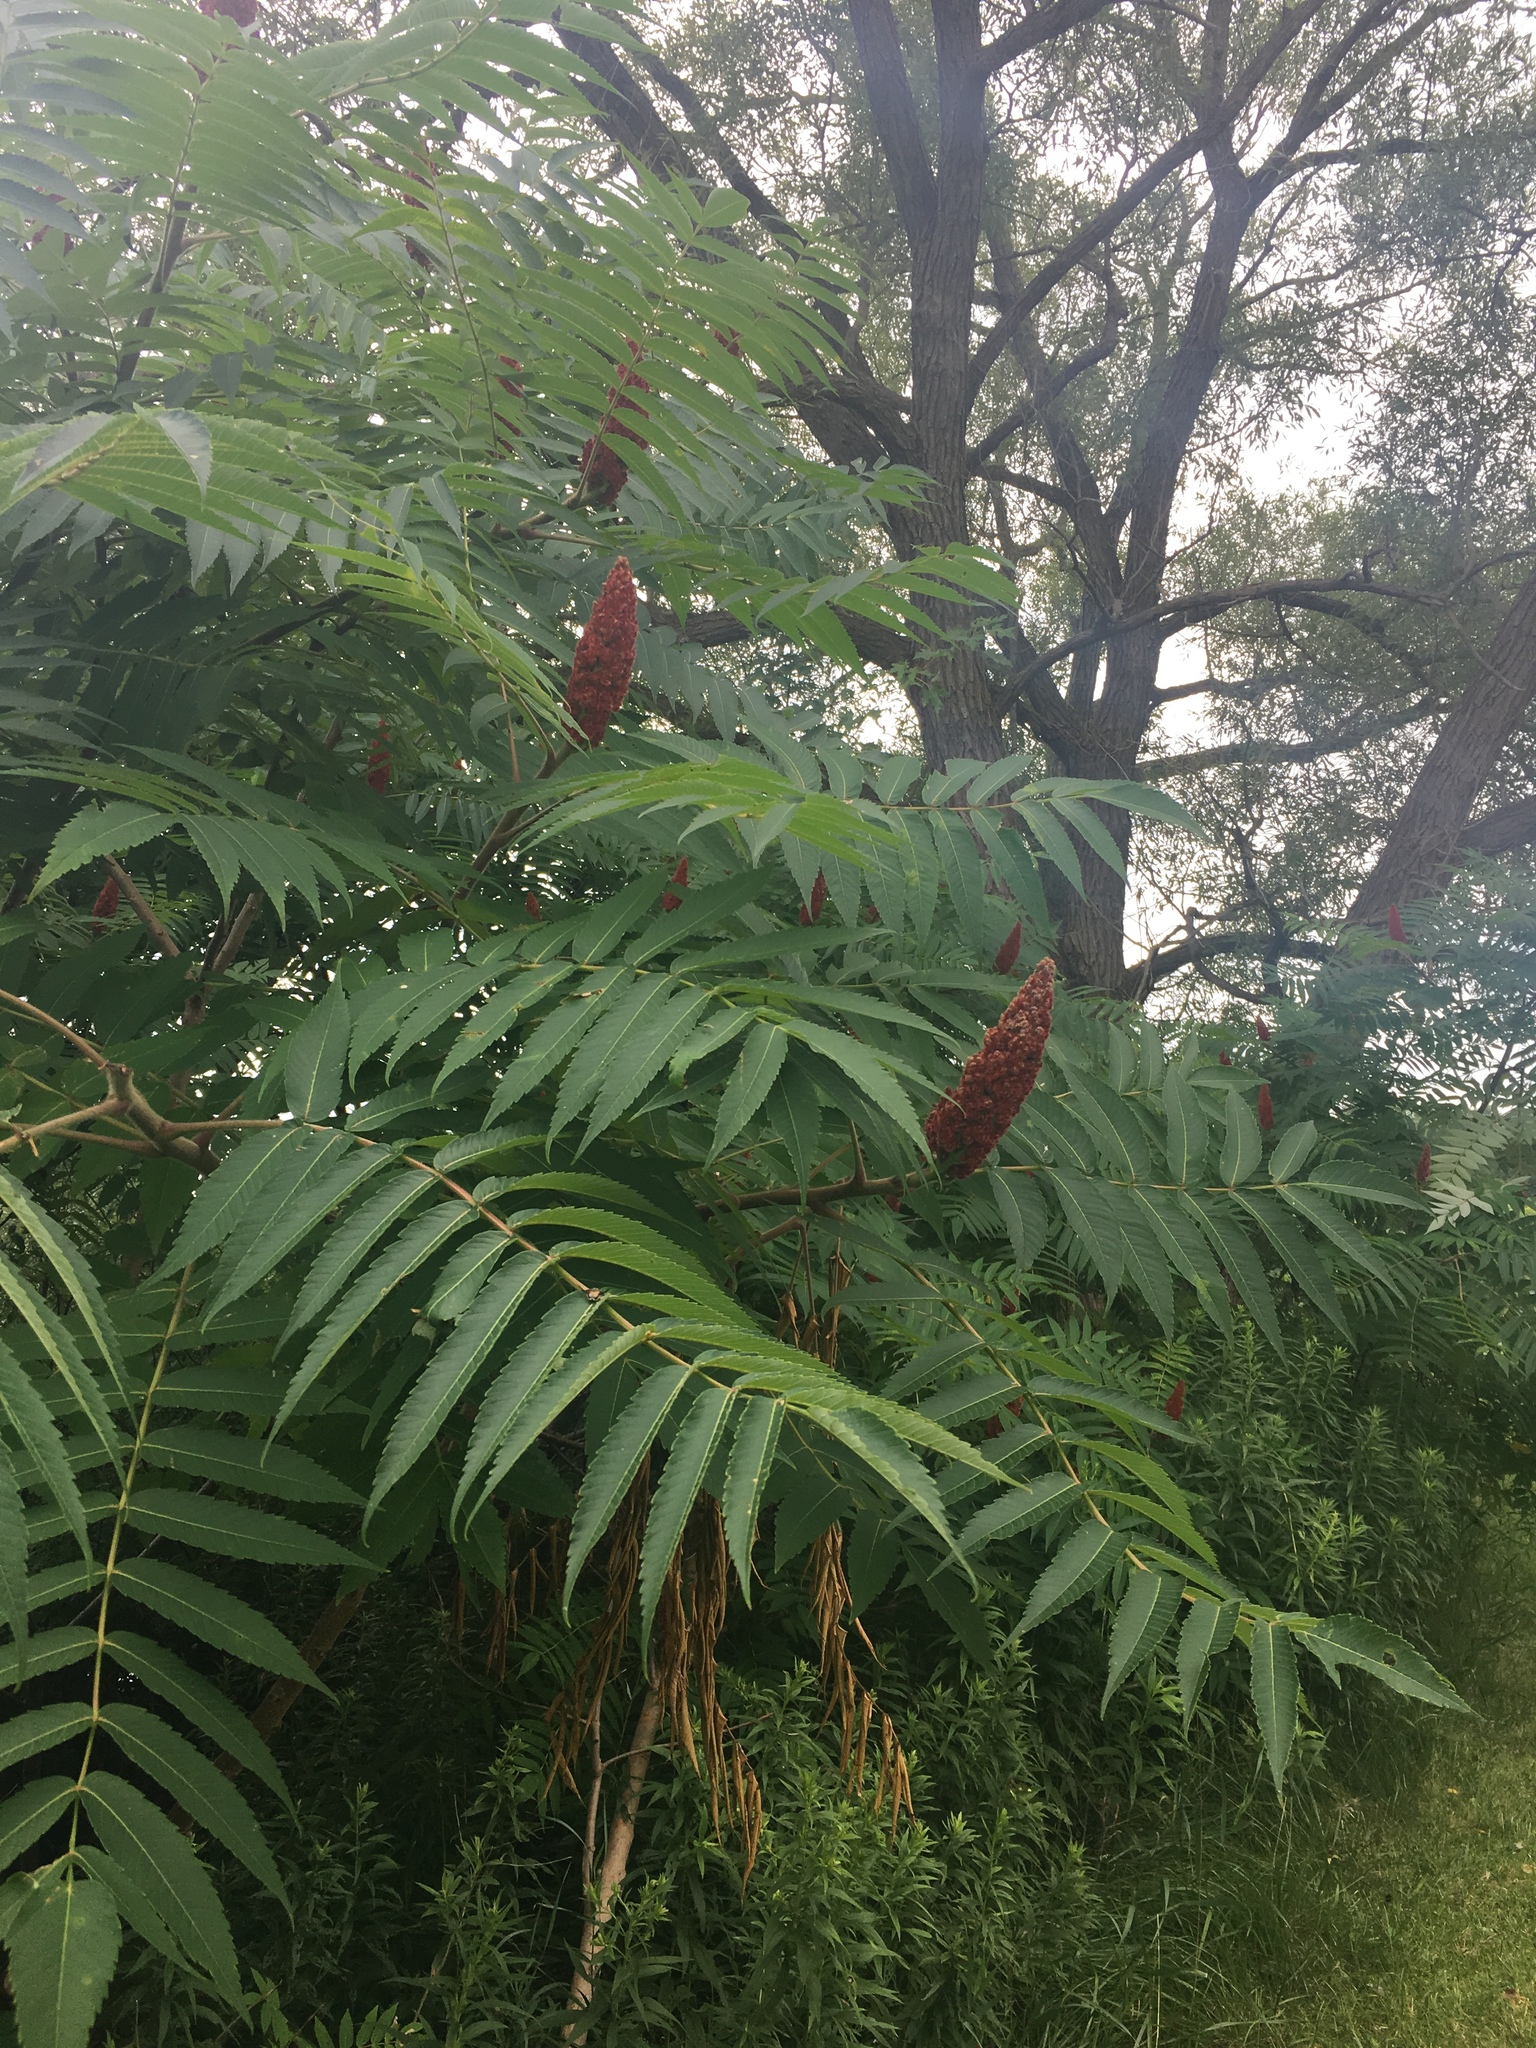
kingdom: Plantae
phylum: Tracheophyta
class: Magnoliopsida
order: Sapindales
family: Anacardiaceae
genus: Rhus
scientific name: Rhus typhina
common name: Staghorn sumac
